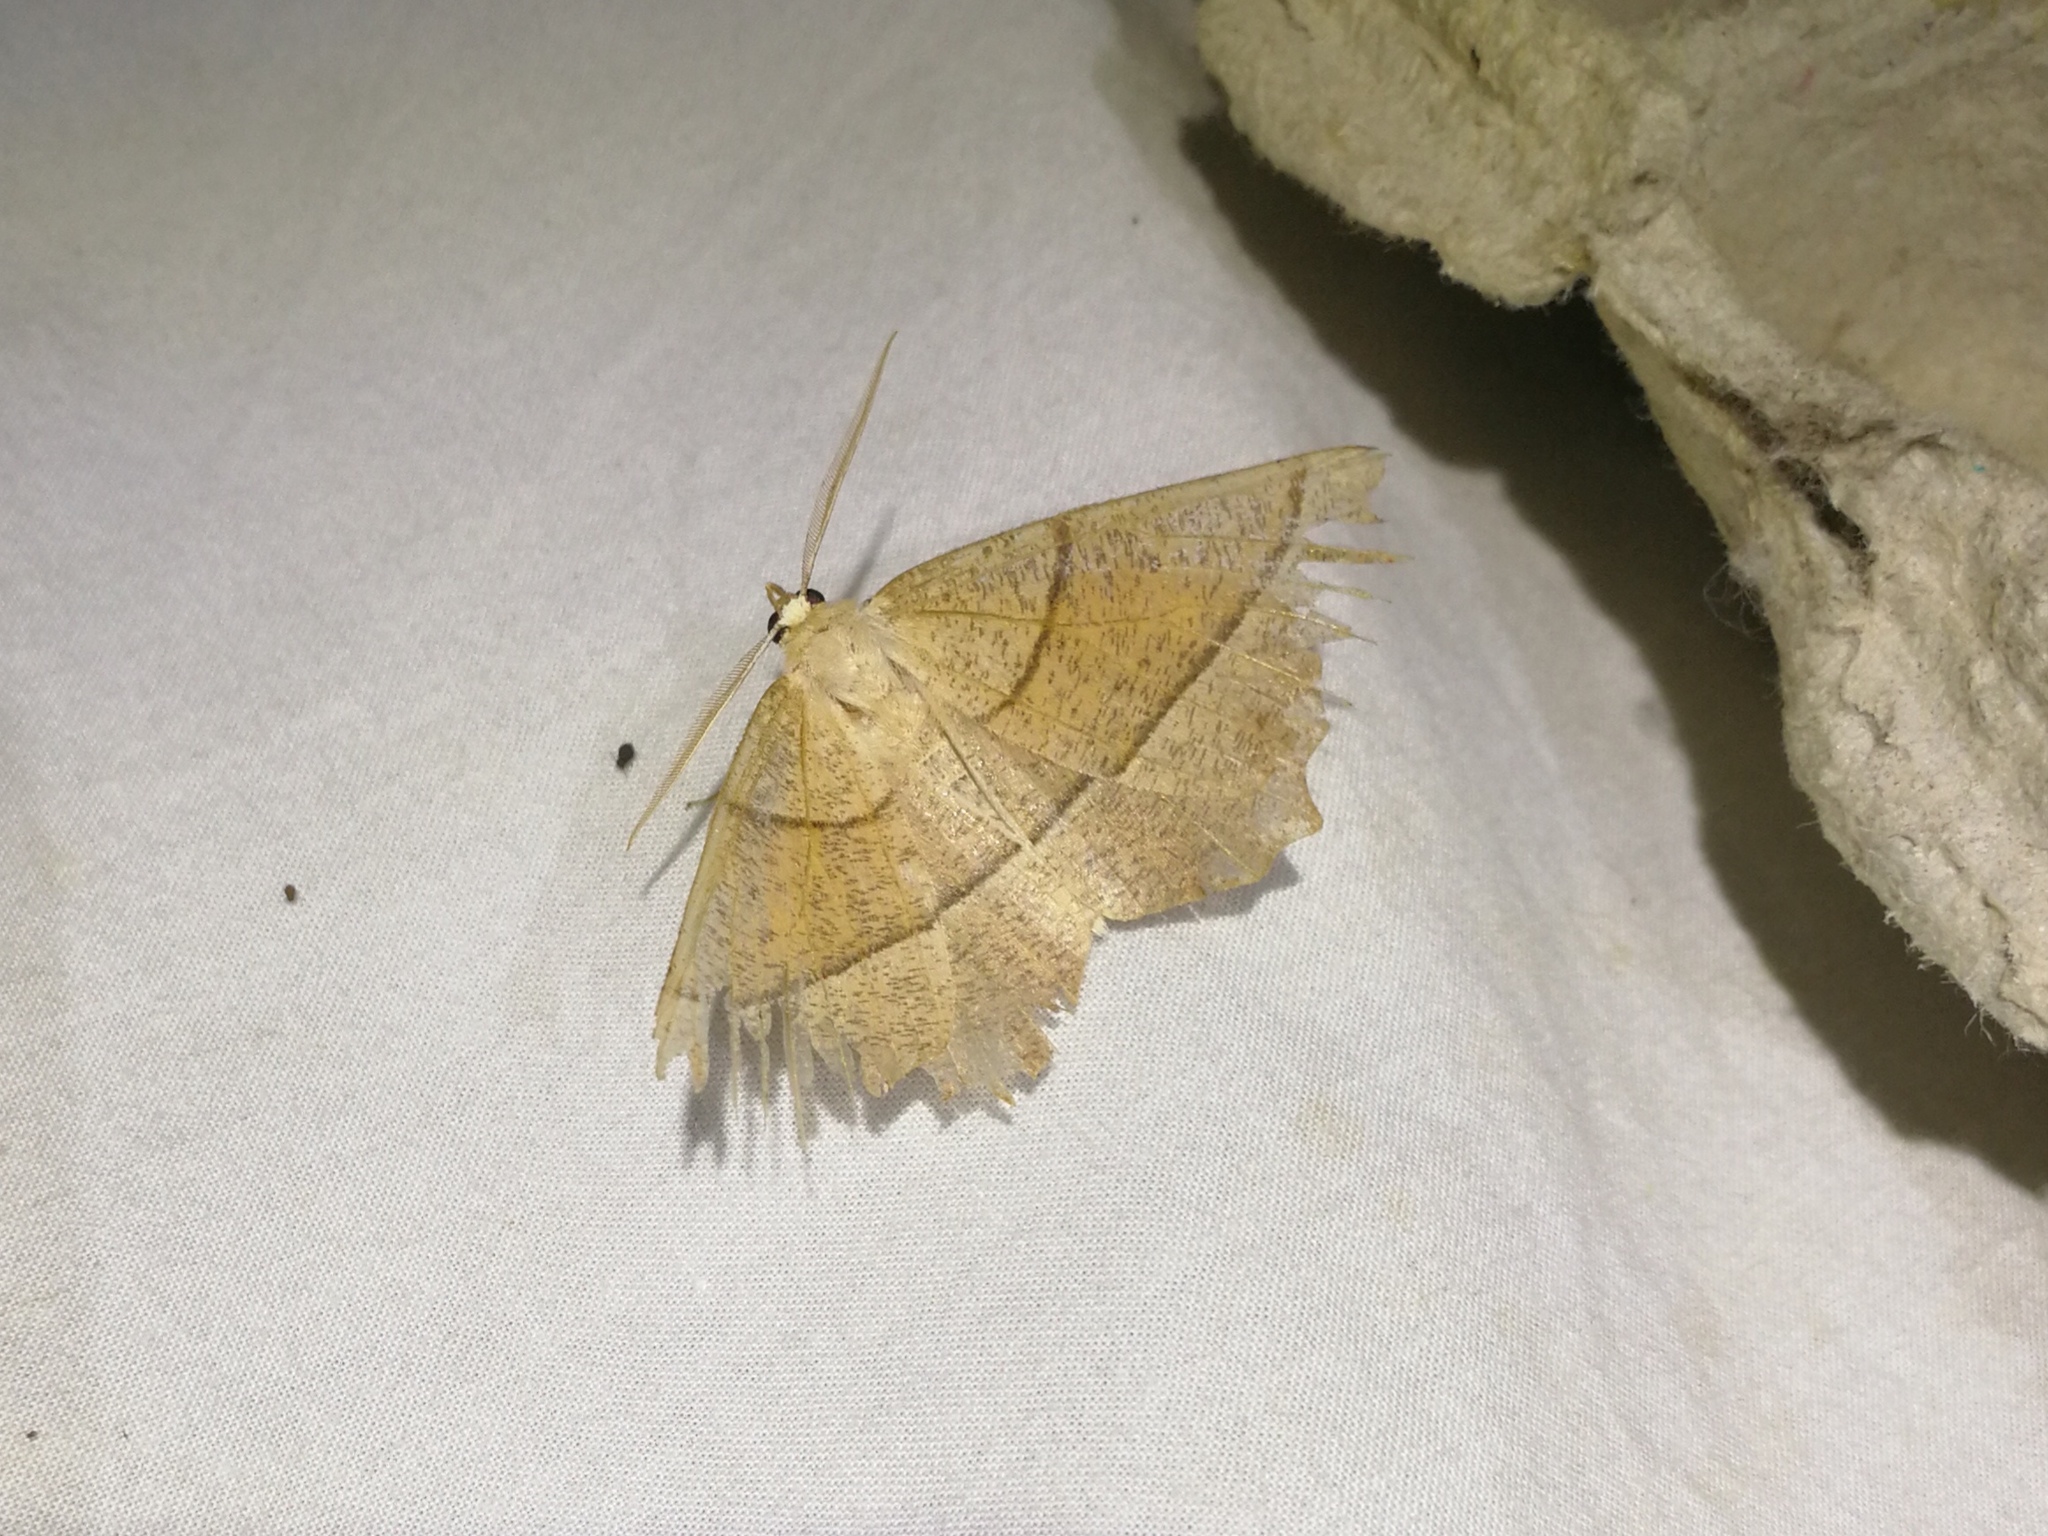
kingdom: Animalia
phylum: Arthropoda
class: Insecta
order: Lepidoptera
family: Geometridae
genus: Gerinia
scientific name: Gerinia honoraria
